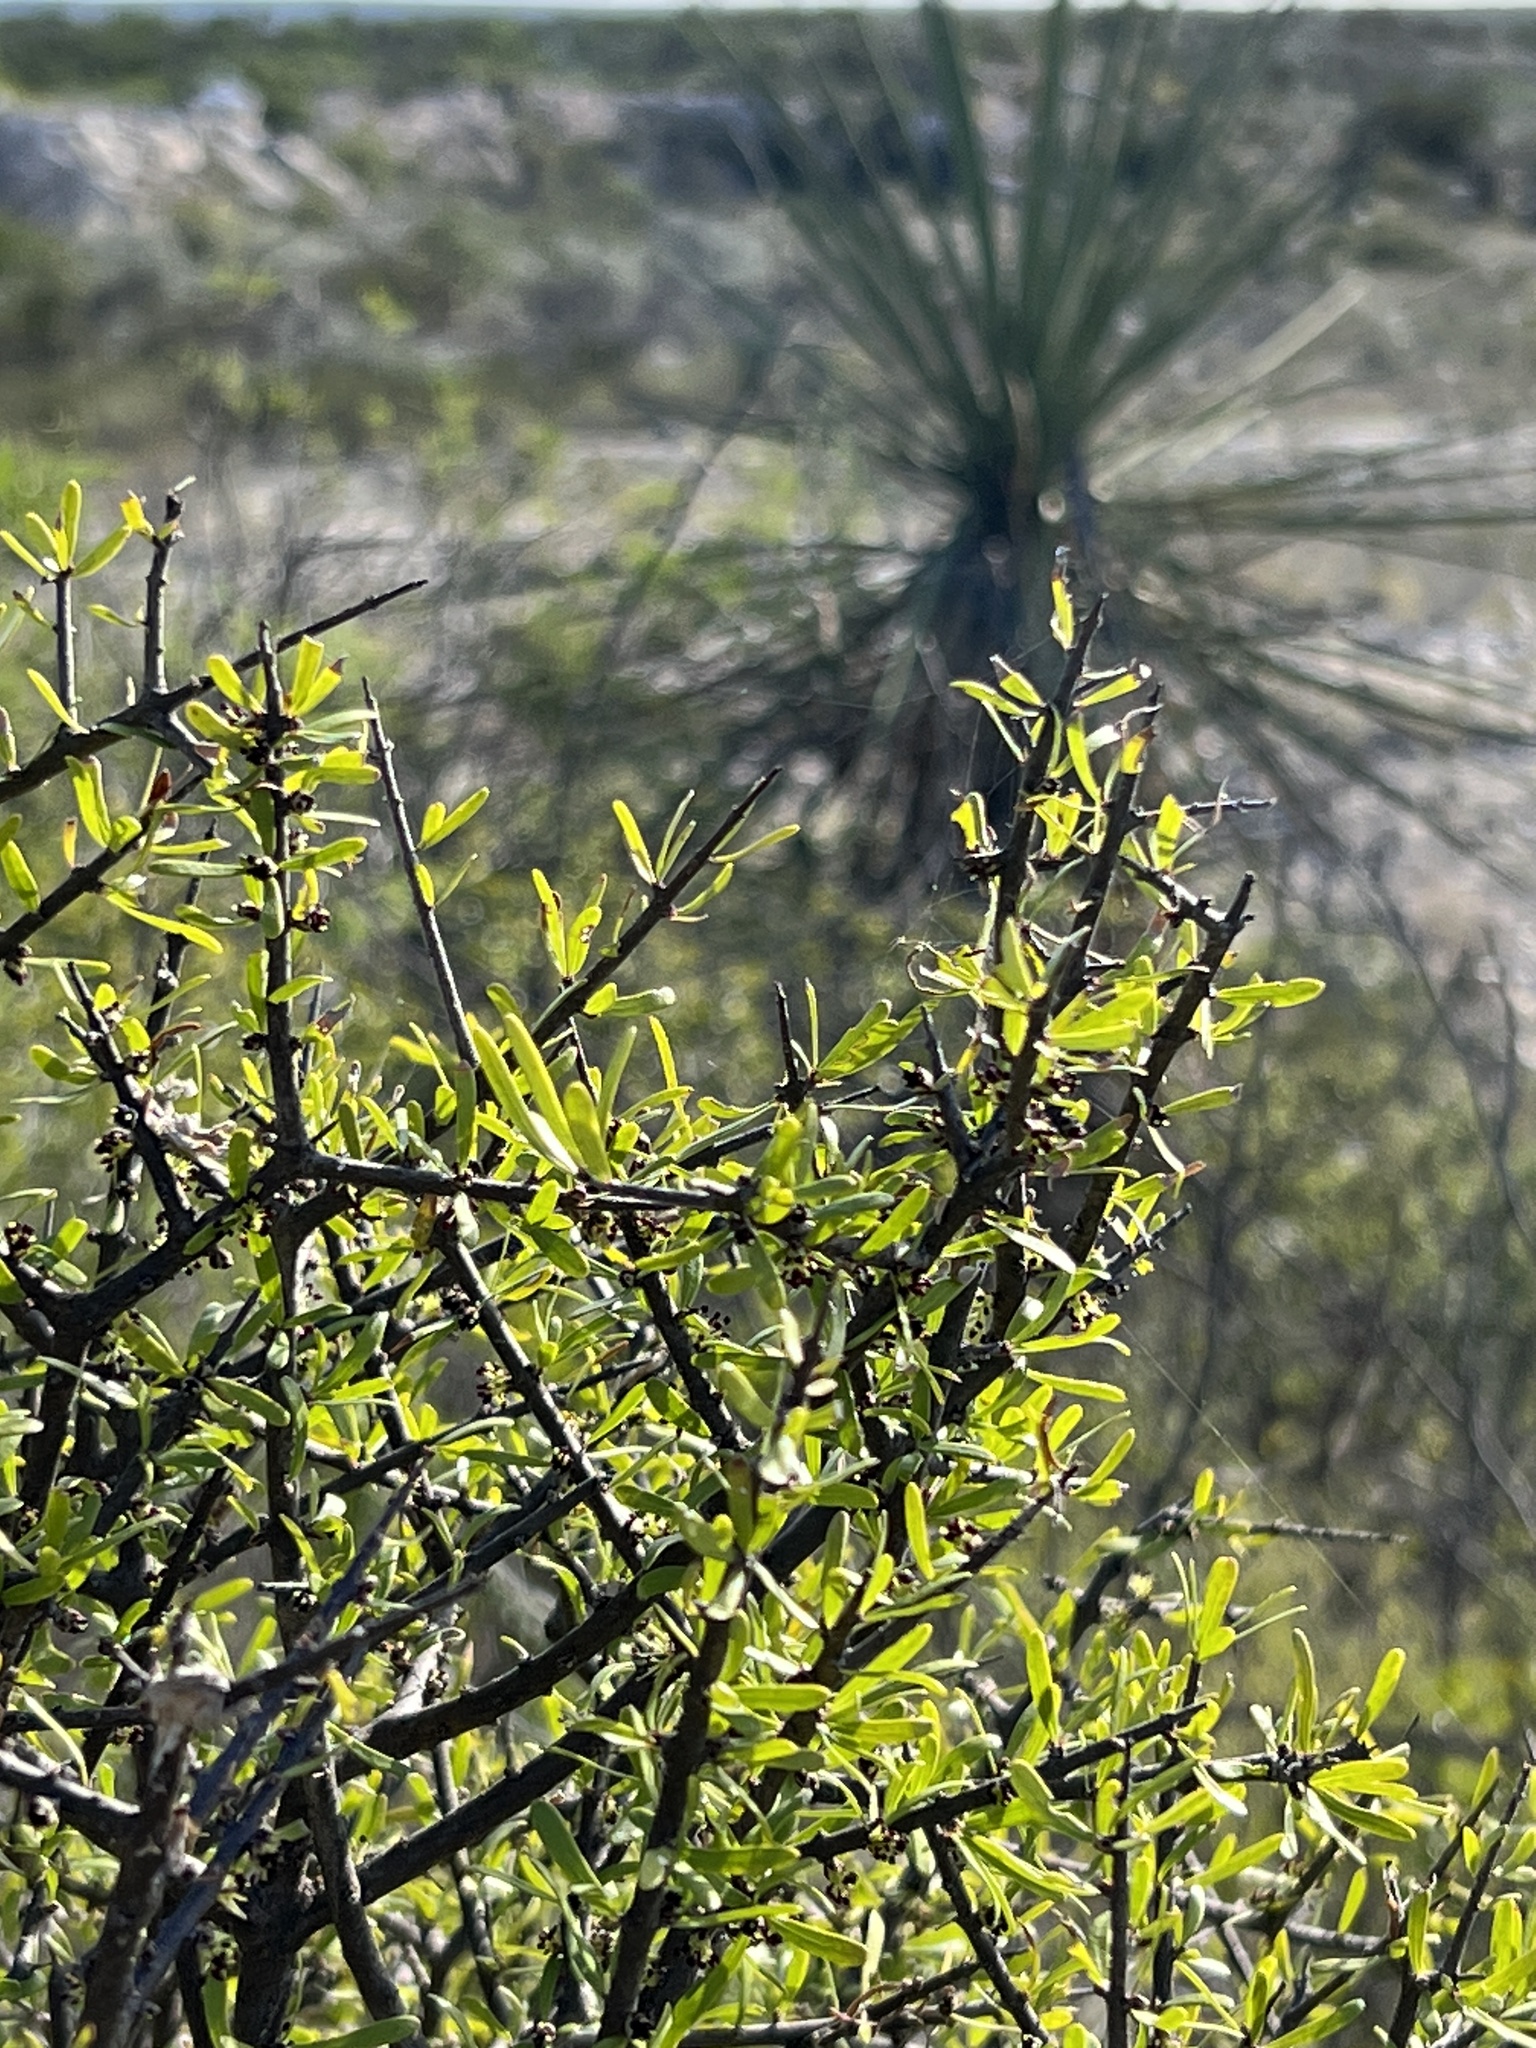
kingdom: Plantae
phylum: Tracheophyta
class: Magnoliopsida
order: Lamiales
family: Oleaceae
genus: Forestiera
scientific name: Forestiera angustifolia
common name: Elbowbush
